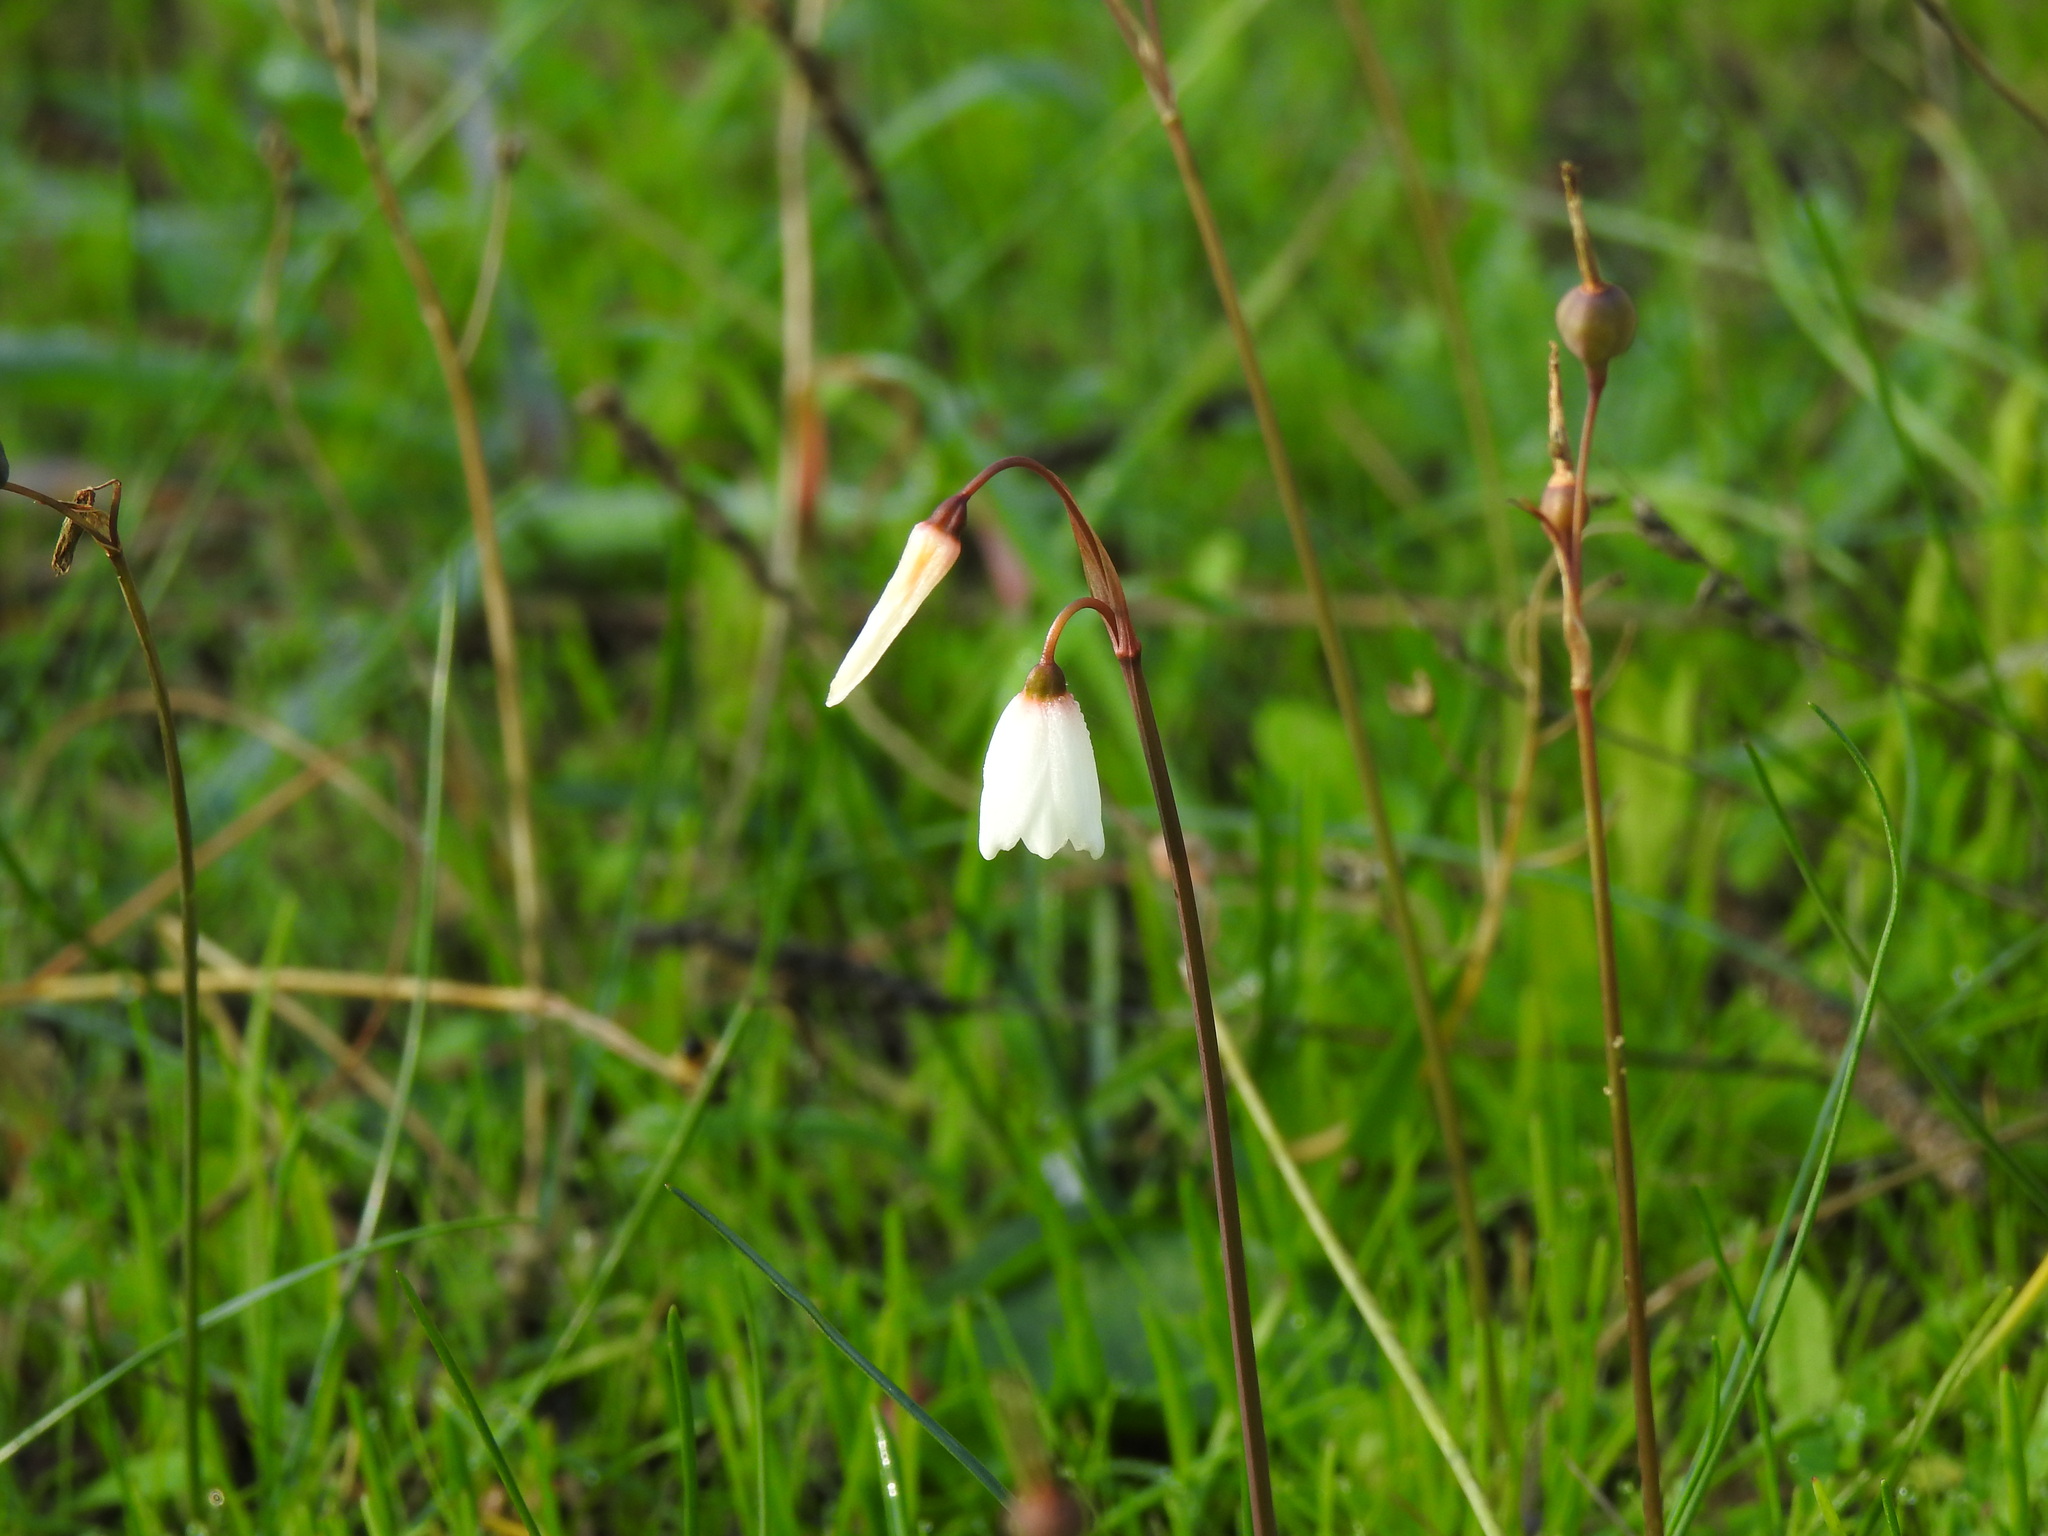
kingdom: Plantae
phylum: Tracheophyta
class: Liliopsida
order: Asparagales
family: Amaryllidaceae
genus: Acis
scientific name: Acis autumnalis
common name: Autumn snowflake
